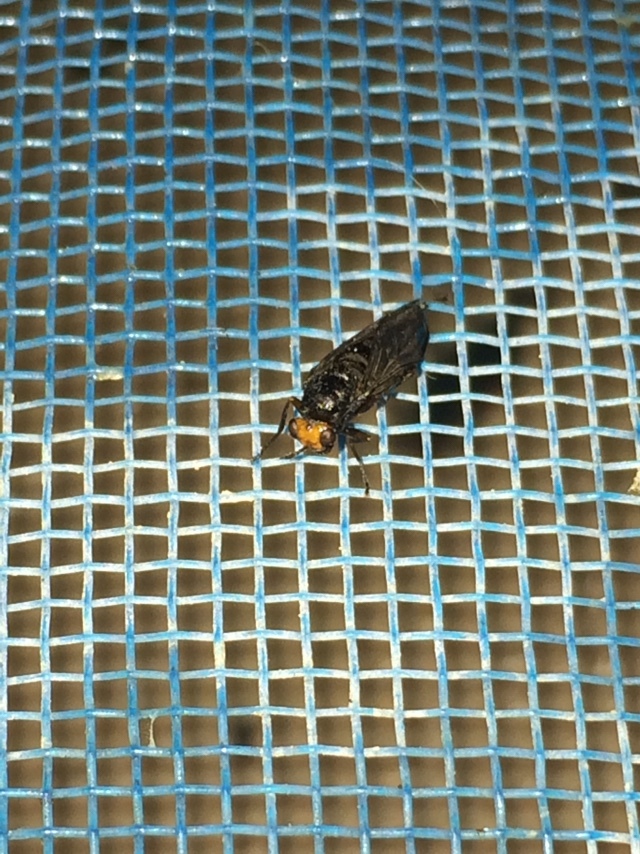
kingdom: Animalia
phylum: Arthropoda
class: Insecta
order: Diptera
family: Stratiomyidae
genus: Inopus
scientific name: Inopus rubriceps
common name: Soldier fly
